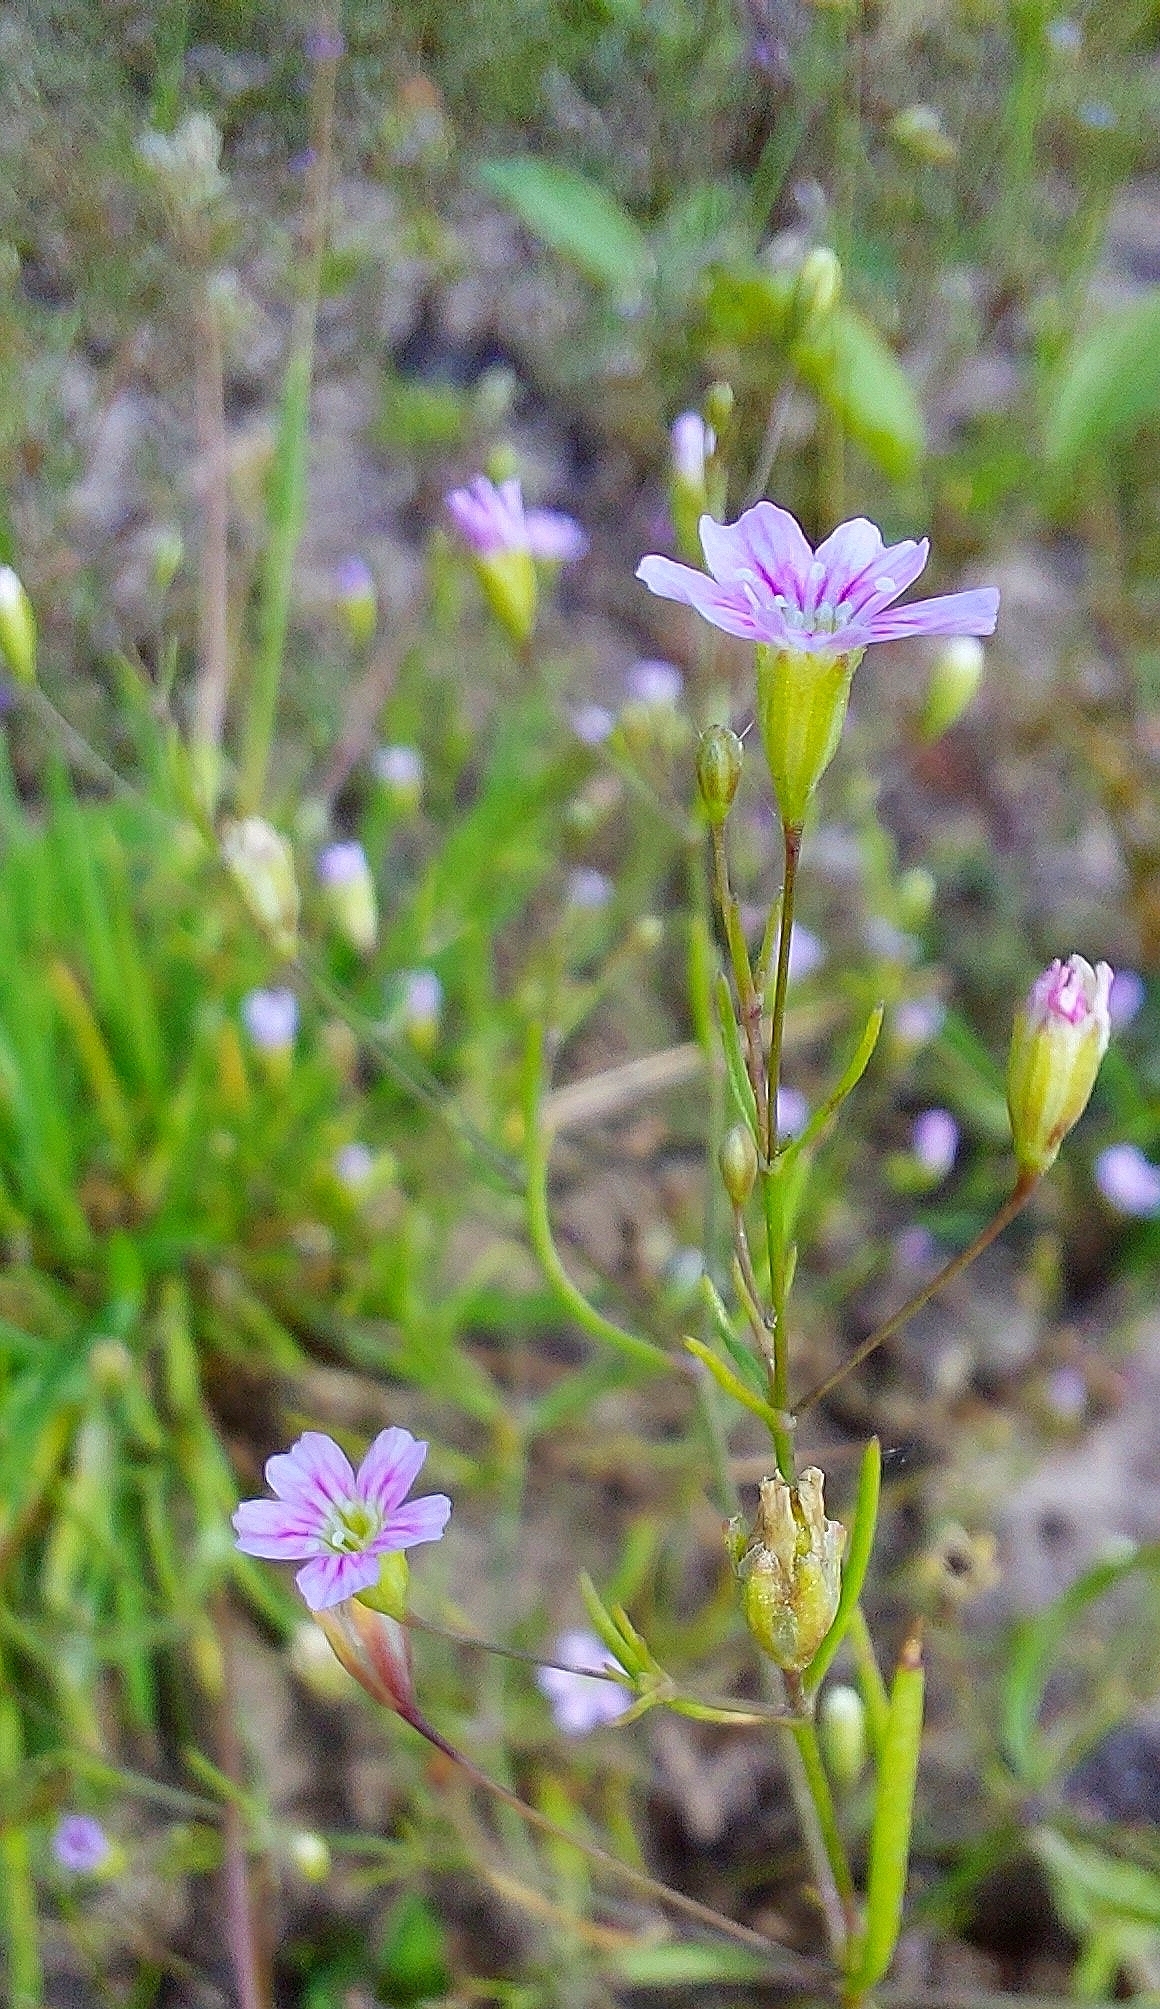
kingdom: Plantae
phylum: Tracheophyta
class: Magnoliopsida
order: Caryophyllales
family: Caryophyllaceae
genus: Psammophiliella
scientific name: Psammophiliella muralis
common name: Cushion baby's-breath
